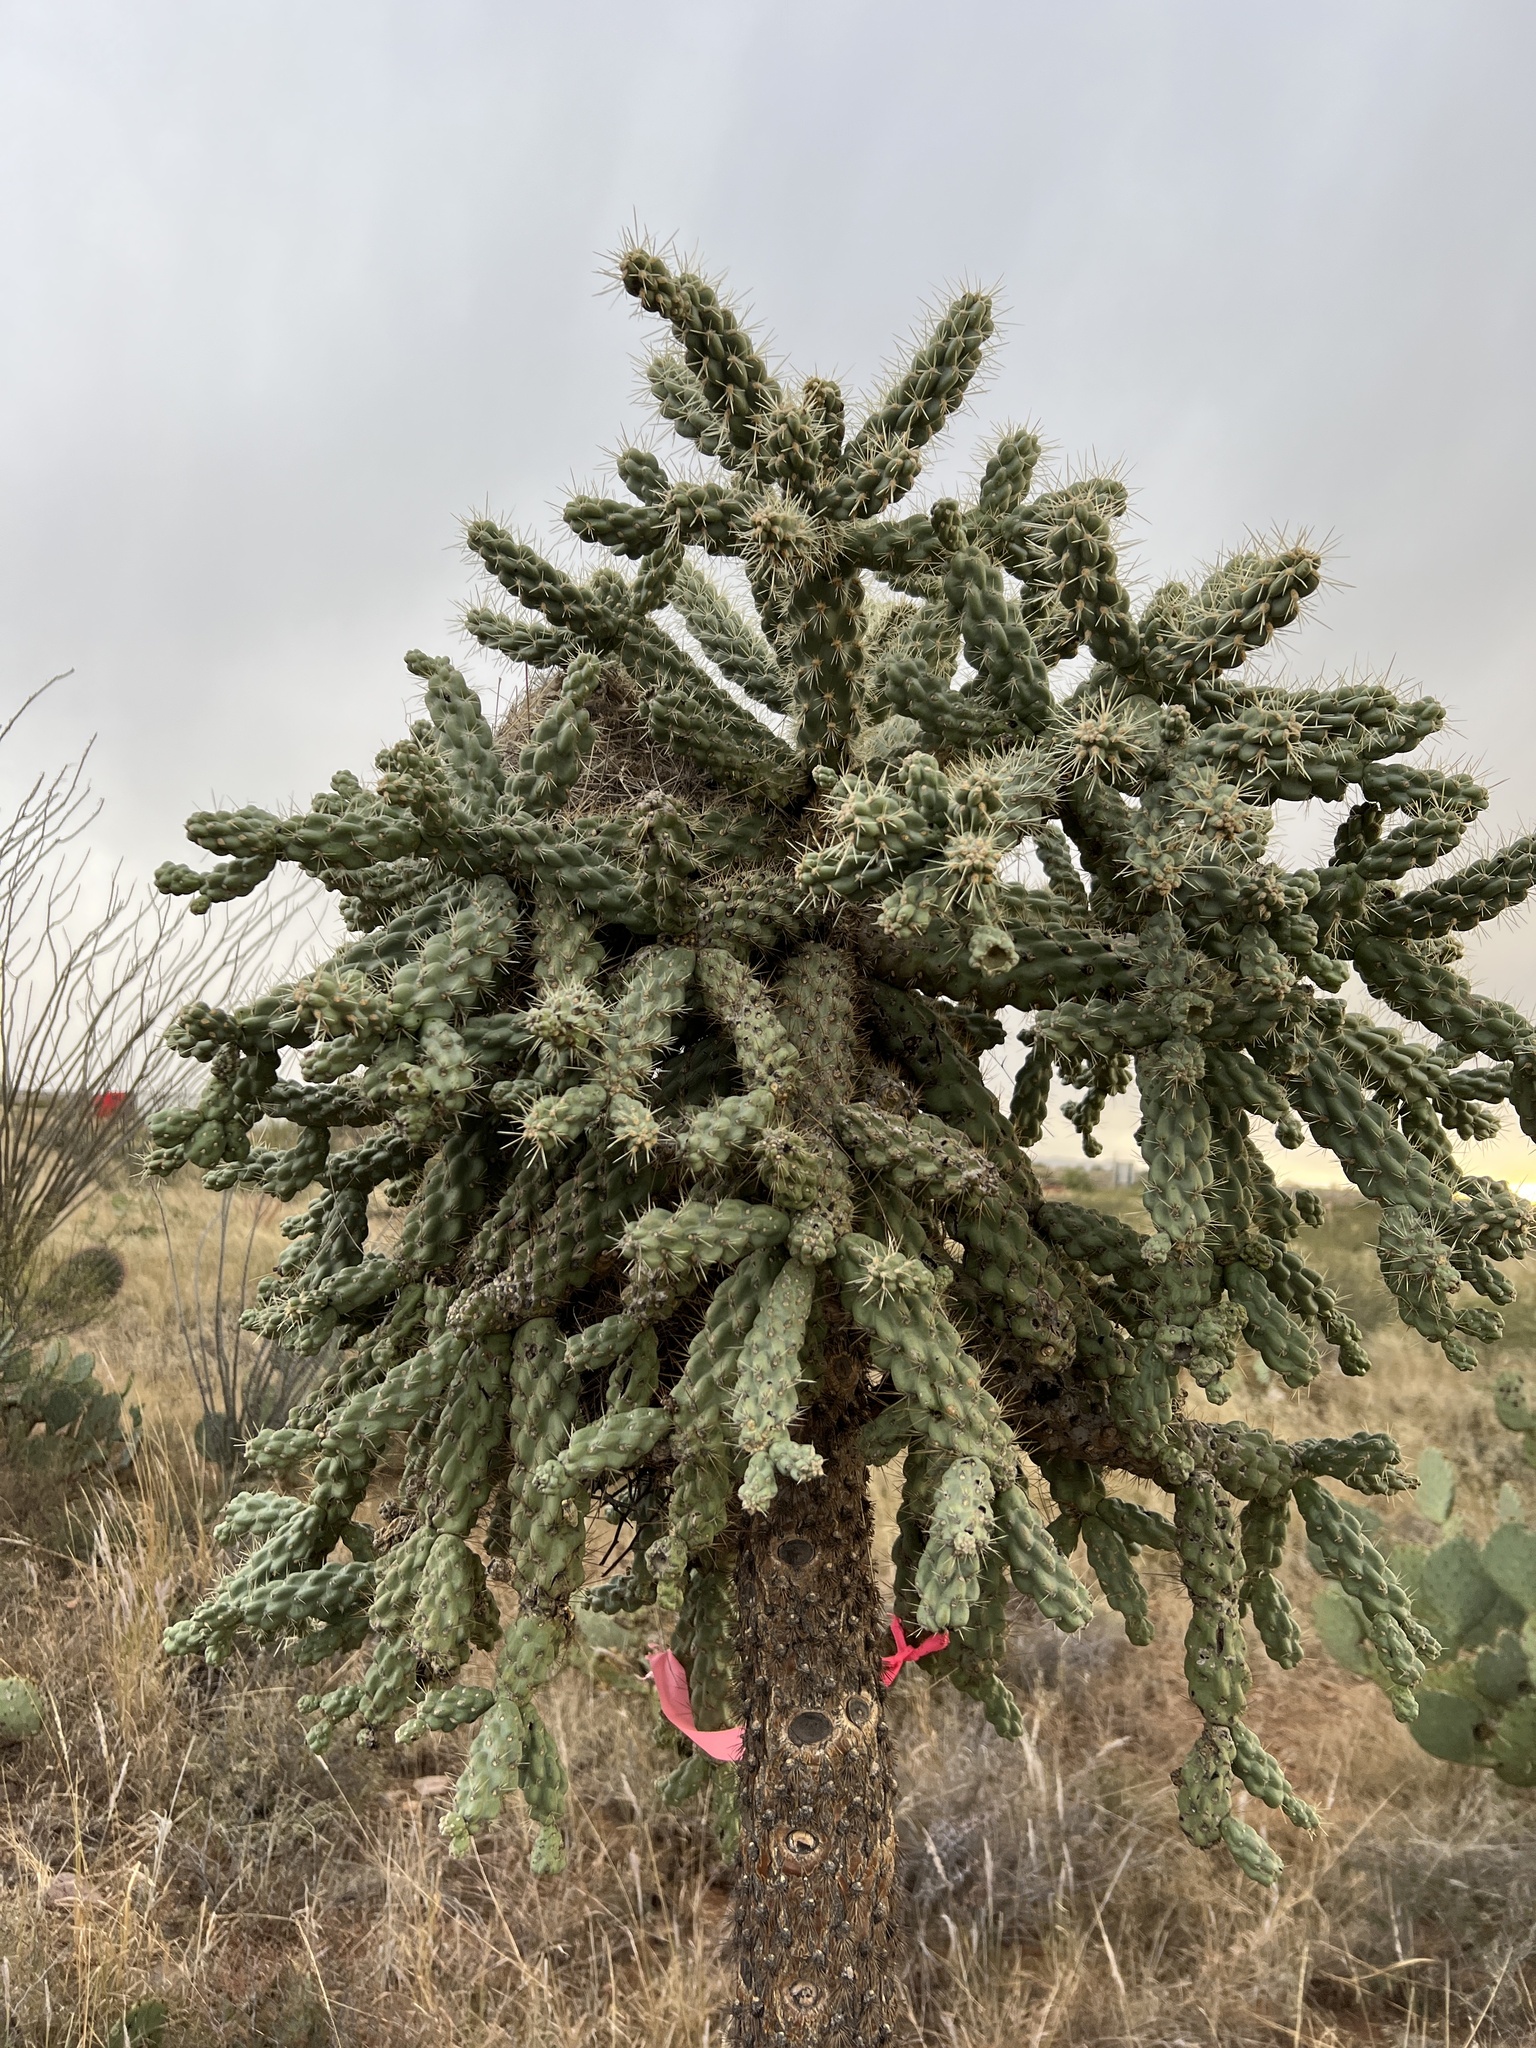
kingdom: Plantae
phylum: Tracheophyta
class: Magnoliopsida
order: Caryophyllales
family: Cactaceae
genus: Cylindropuntia
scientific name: Cylindropuntia fulgida
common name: Jumping cholla
